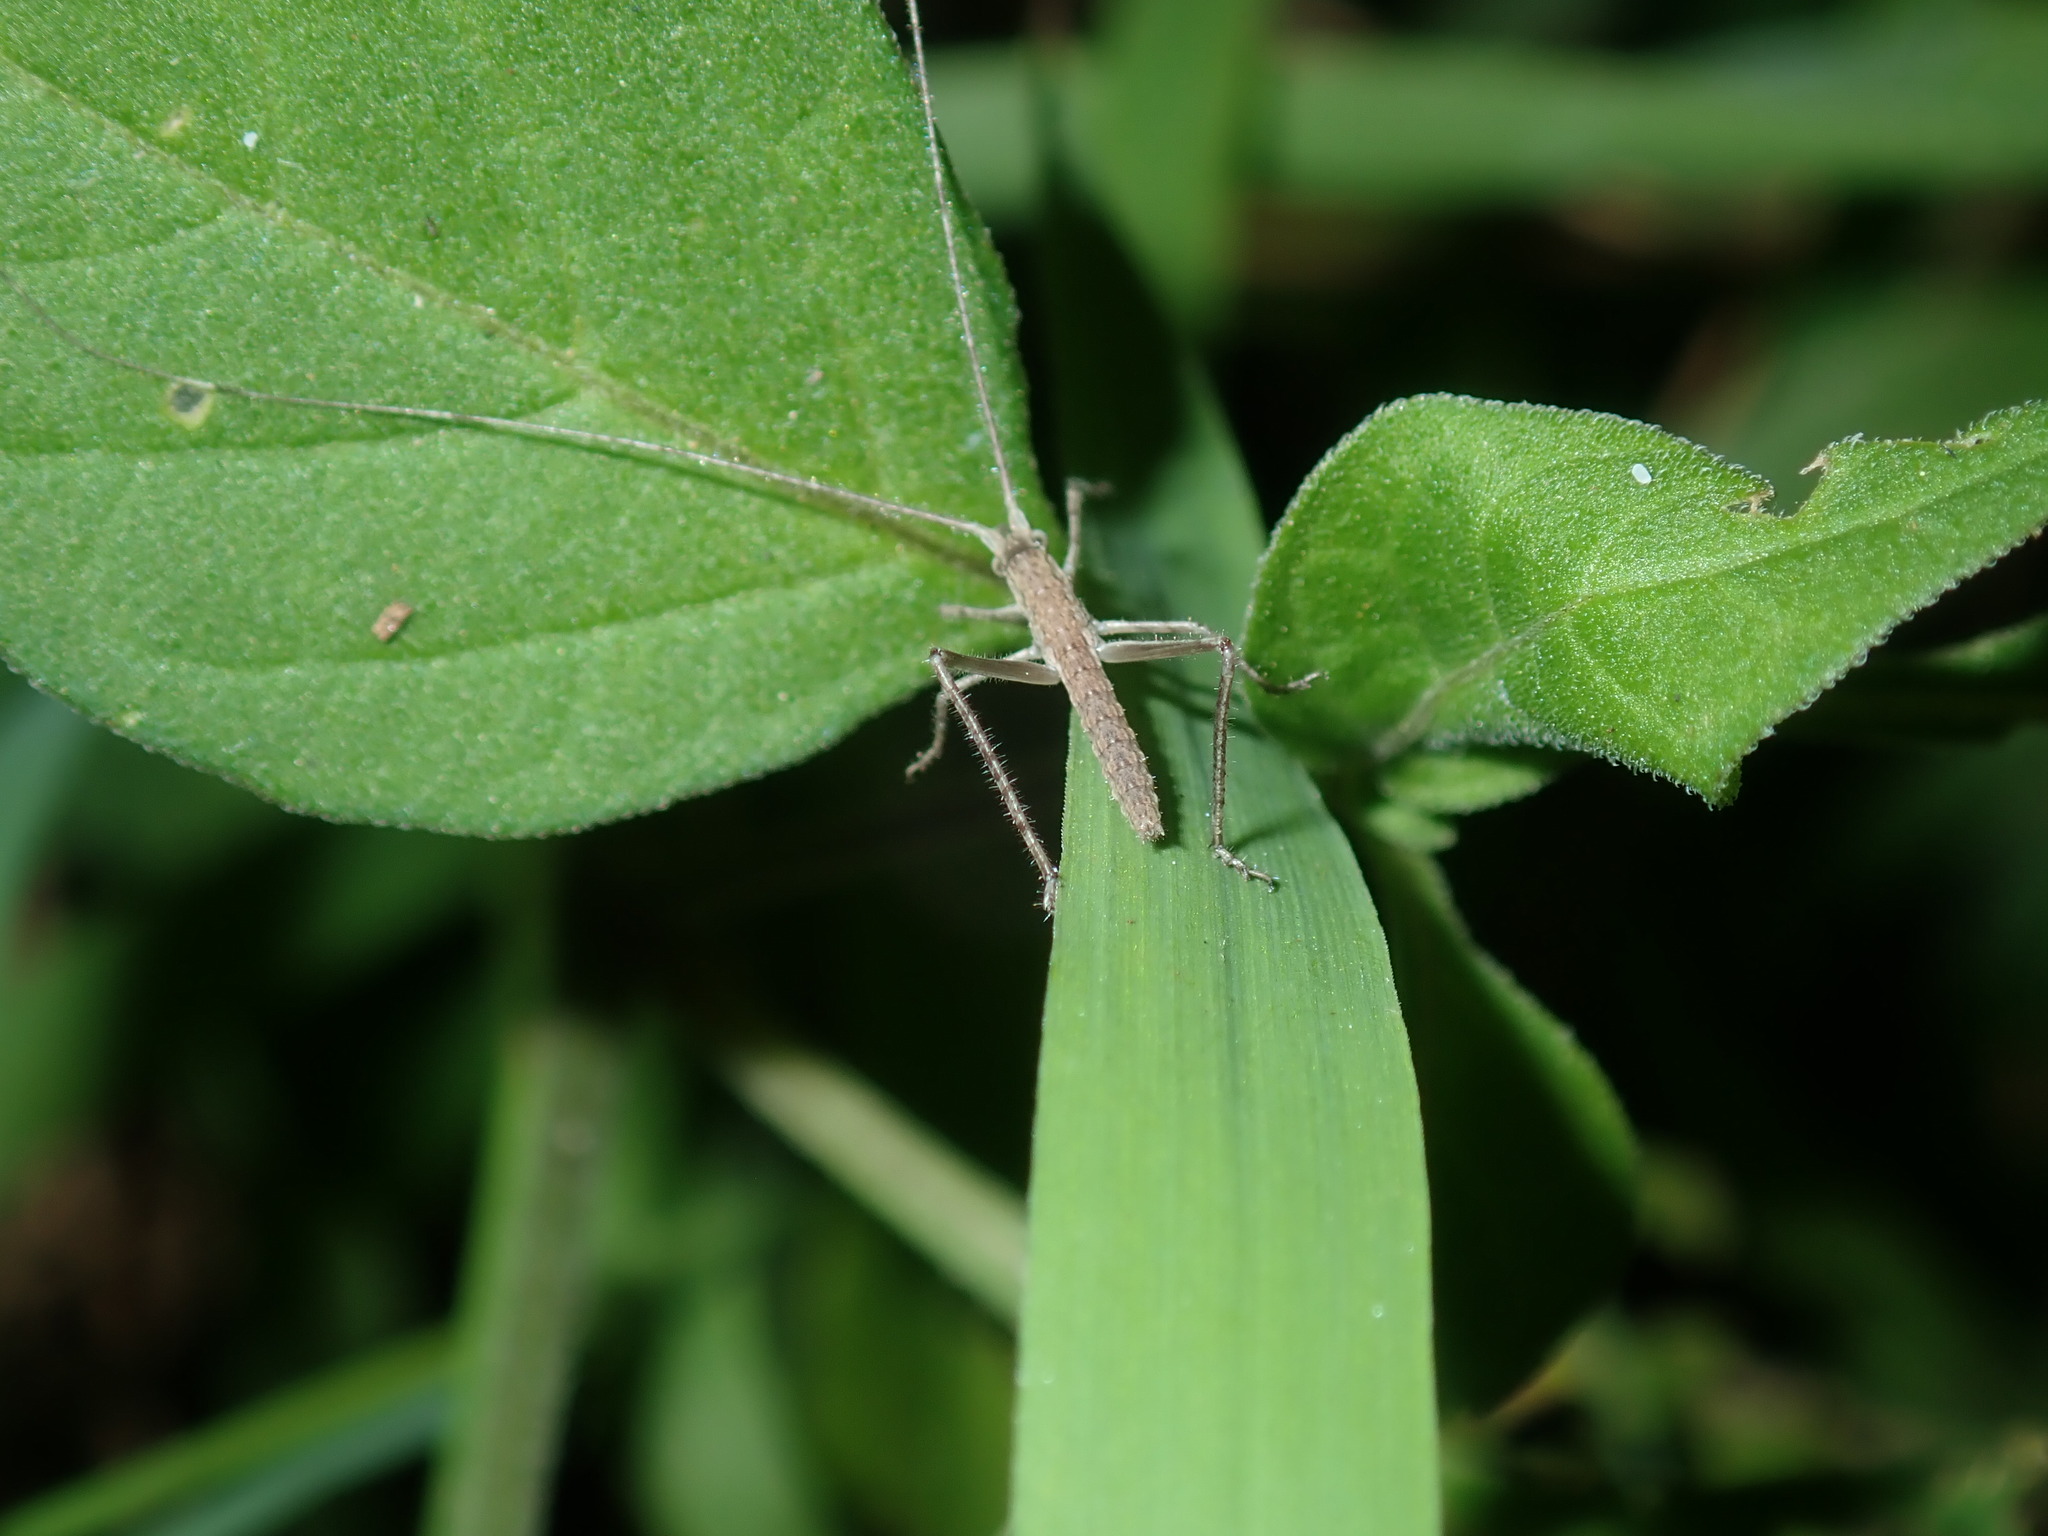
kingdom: Animalia
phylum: Arthropoda
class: Insecta
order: Orthoptera
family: Tettigoniidae
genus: Zaprochilus
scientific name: Zaprochilus australis
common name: Australian twig-mimicking katydid
